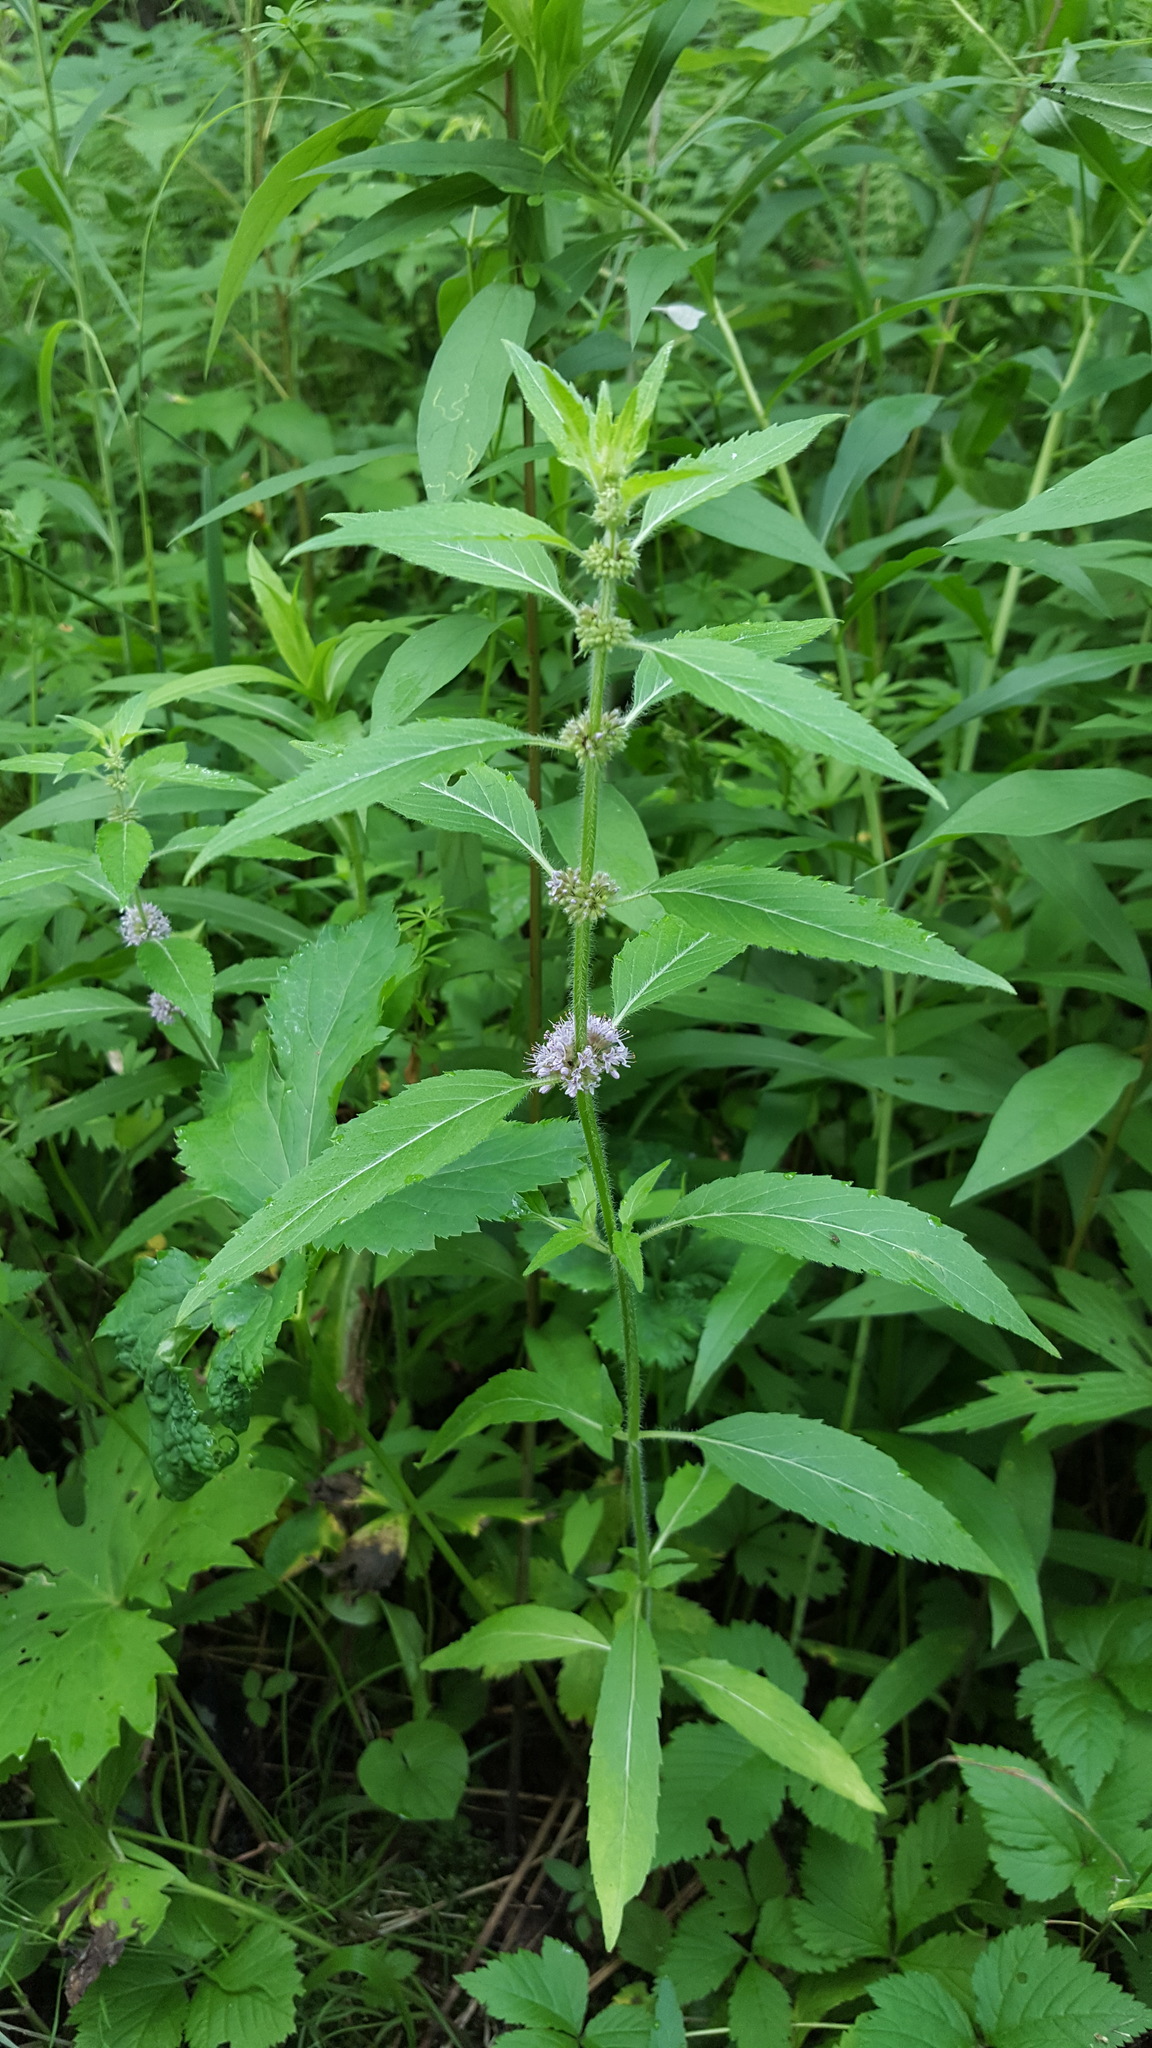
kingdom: Plantae
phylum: Tracheophyta
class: Magnoliopsida
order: Lamiales
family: Lamiaceae
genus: Mentha
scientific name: Mentha canadensis
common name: American corn mint
